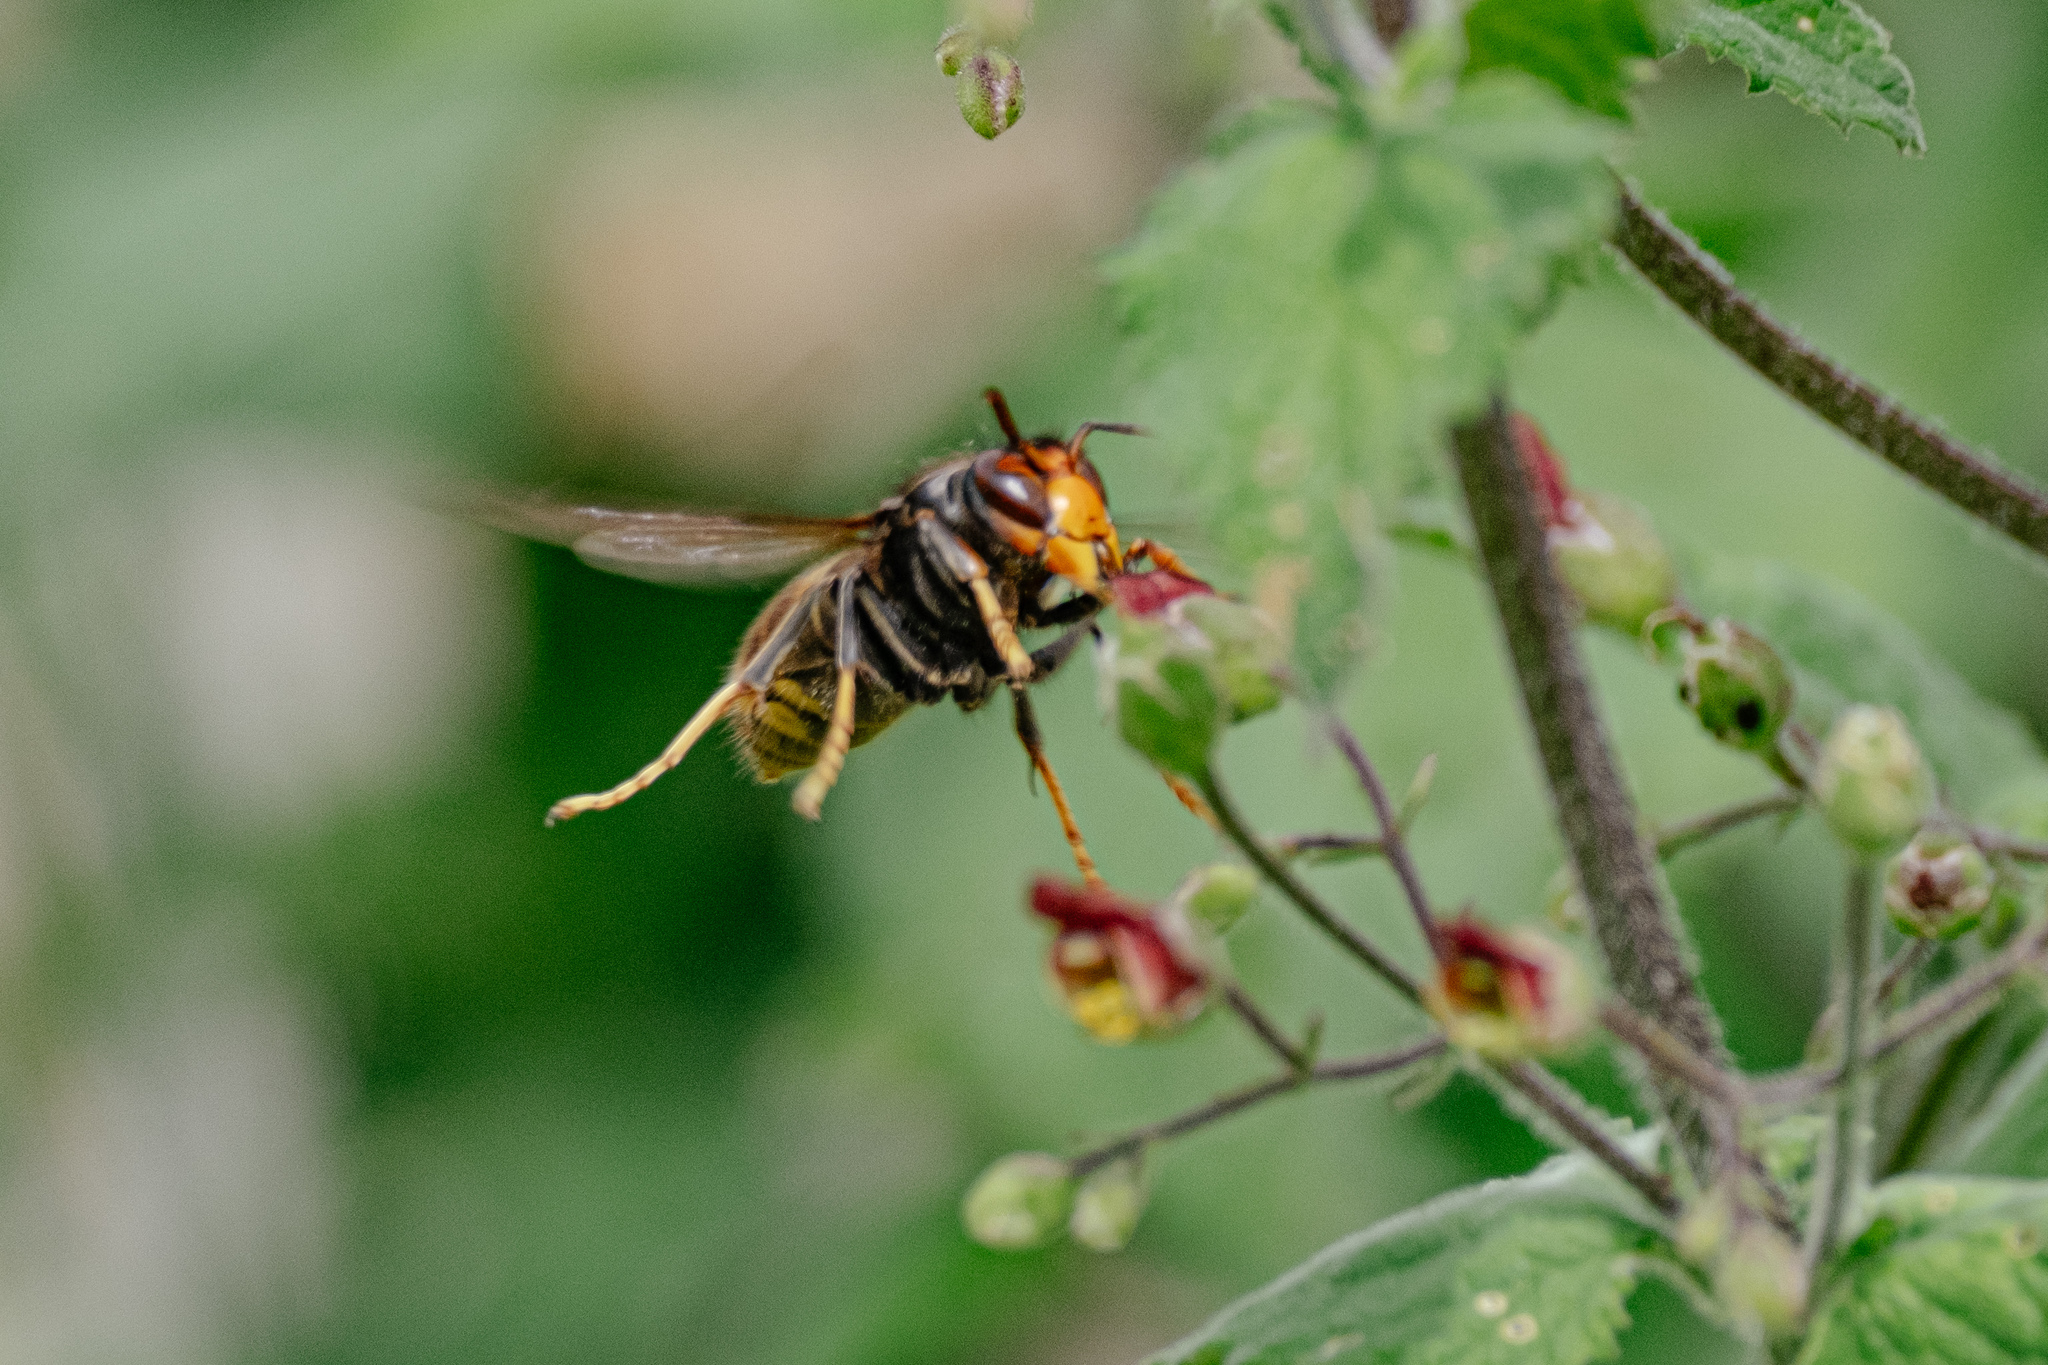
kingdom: Animalia
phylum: Arthropoda
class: Insecta
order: Hymenoptera
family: Vespidae
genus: Vespa
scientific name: Vespa velutina
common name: Asian hornet
